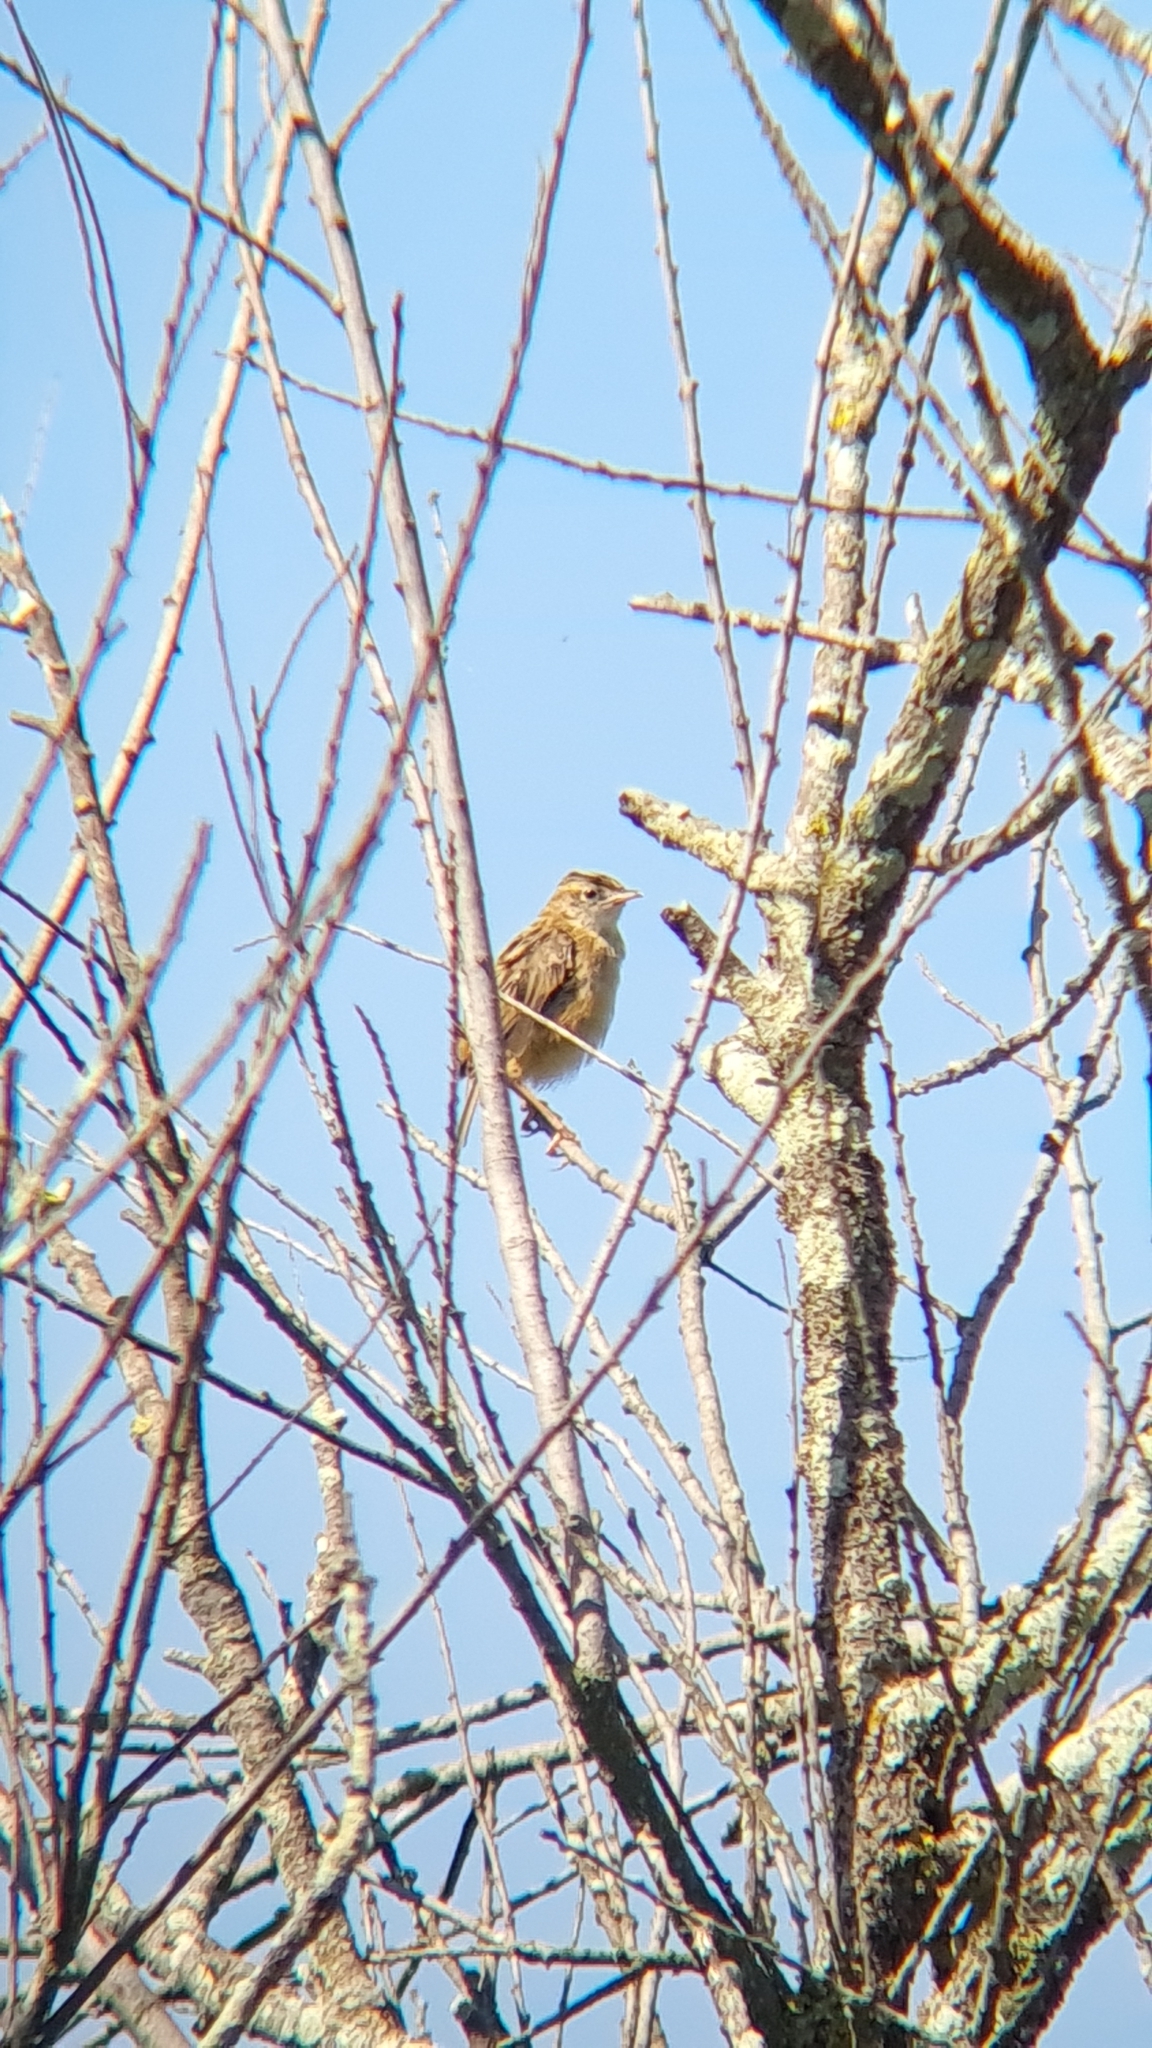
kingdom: Animalia
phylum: Chordata
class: Aves
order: Passeriformes
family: Cisticolidae
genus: Cisticola
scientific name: Cisticola juncidis
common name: Zitting cisticola
